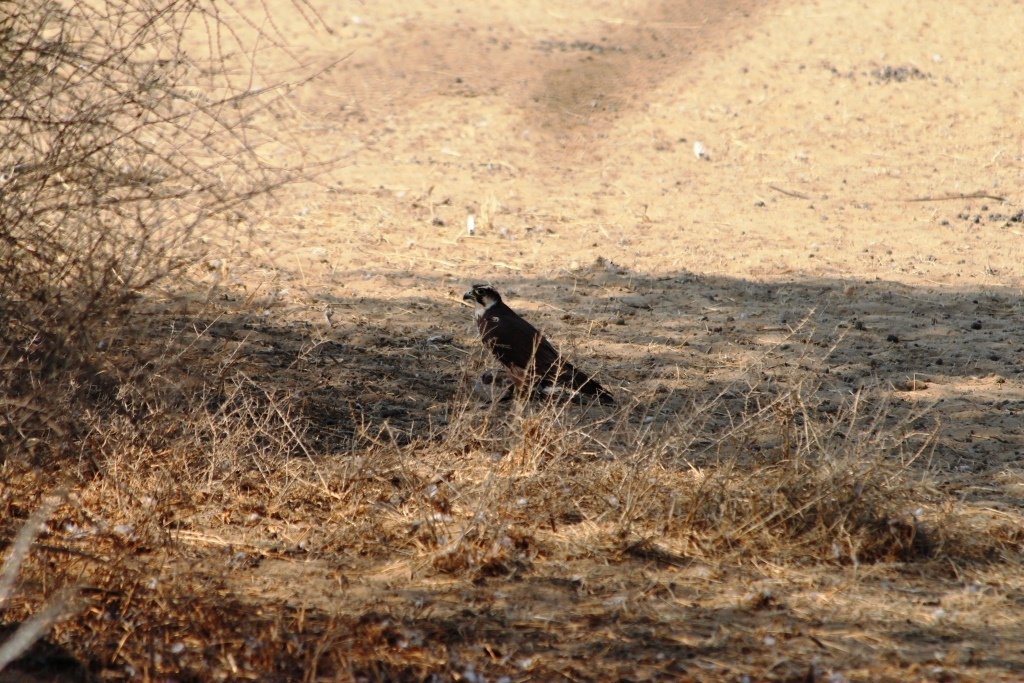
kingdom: Animalia
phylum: Chordata
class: Aves
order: Falconiformes
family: Falconidae
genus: Falco
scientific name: Falco biarmicus
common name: Lanner falcon
